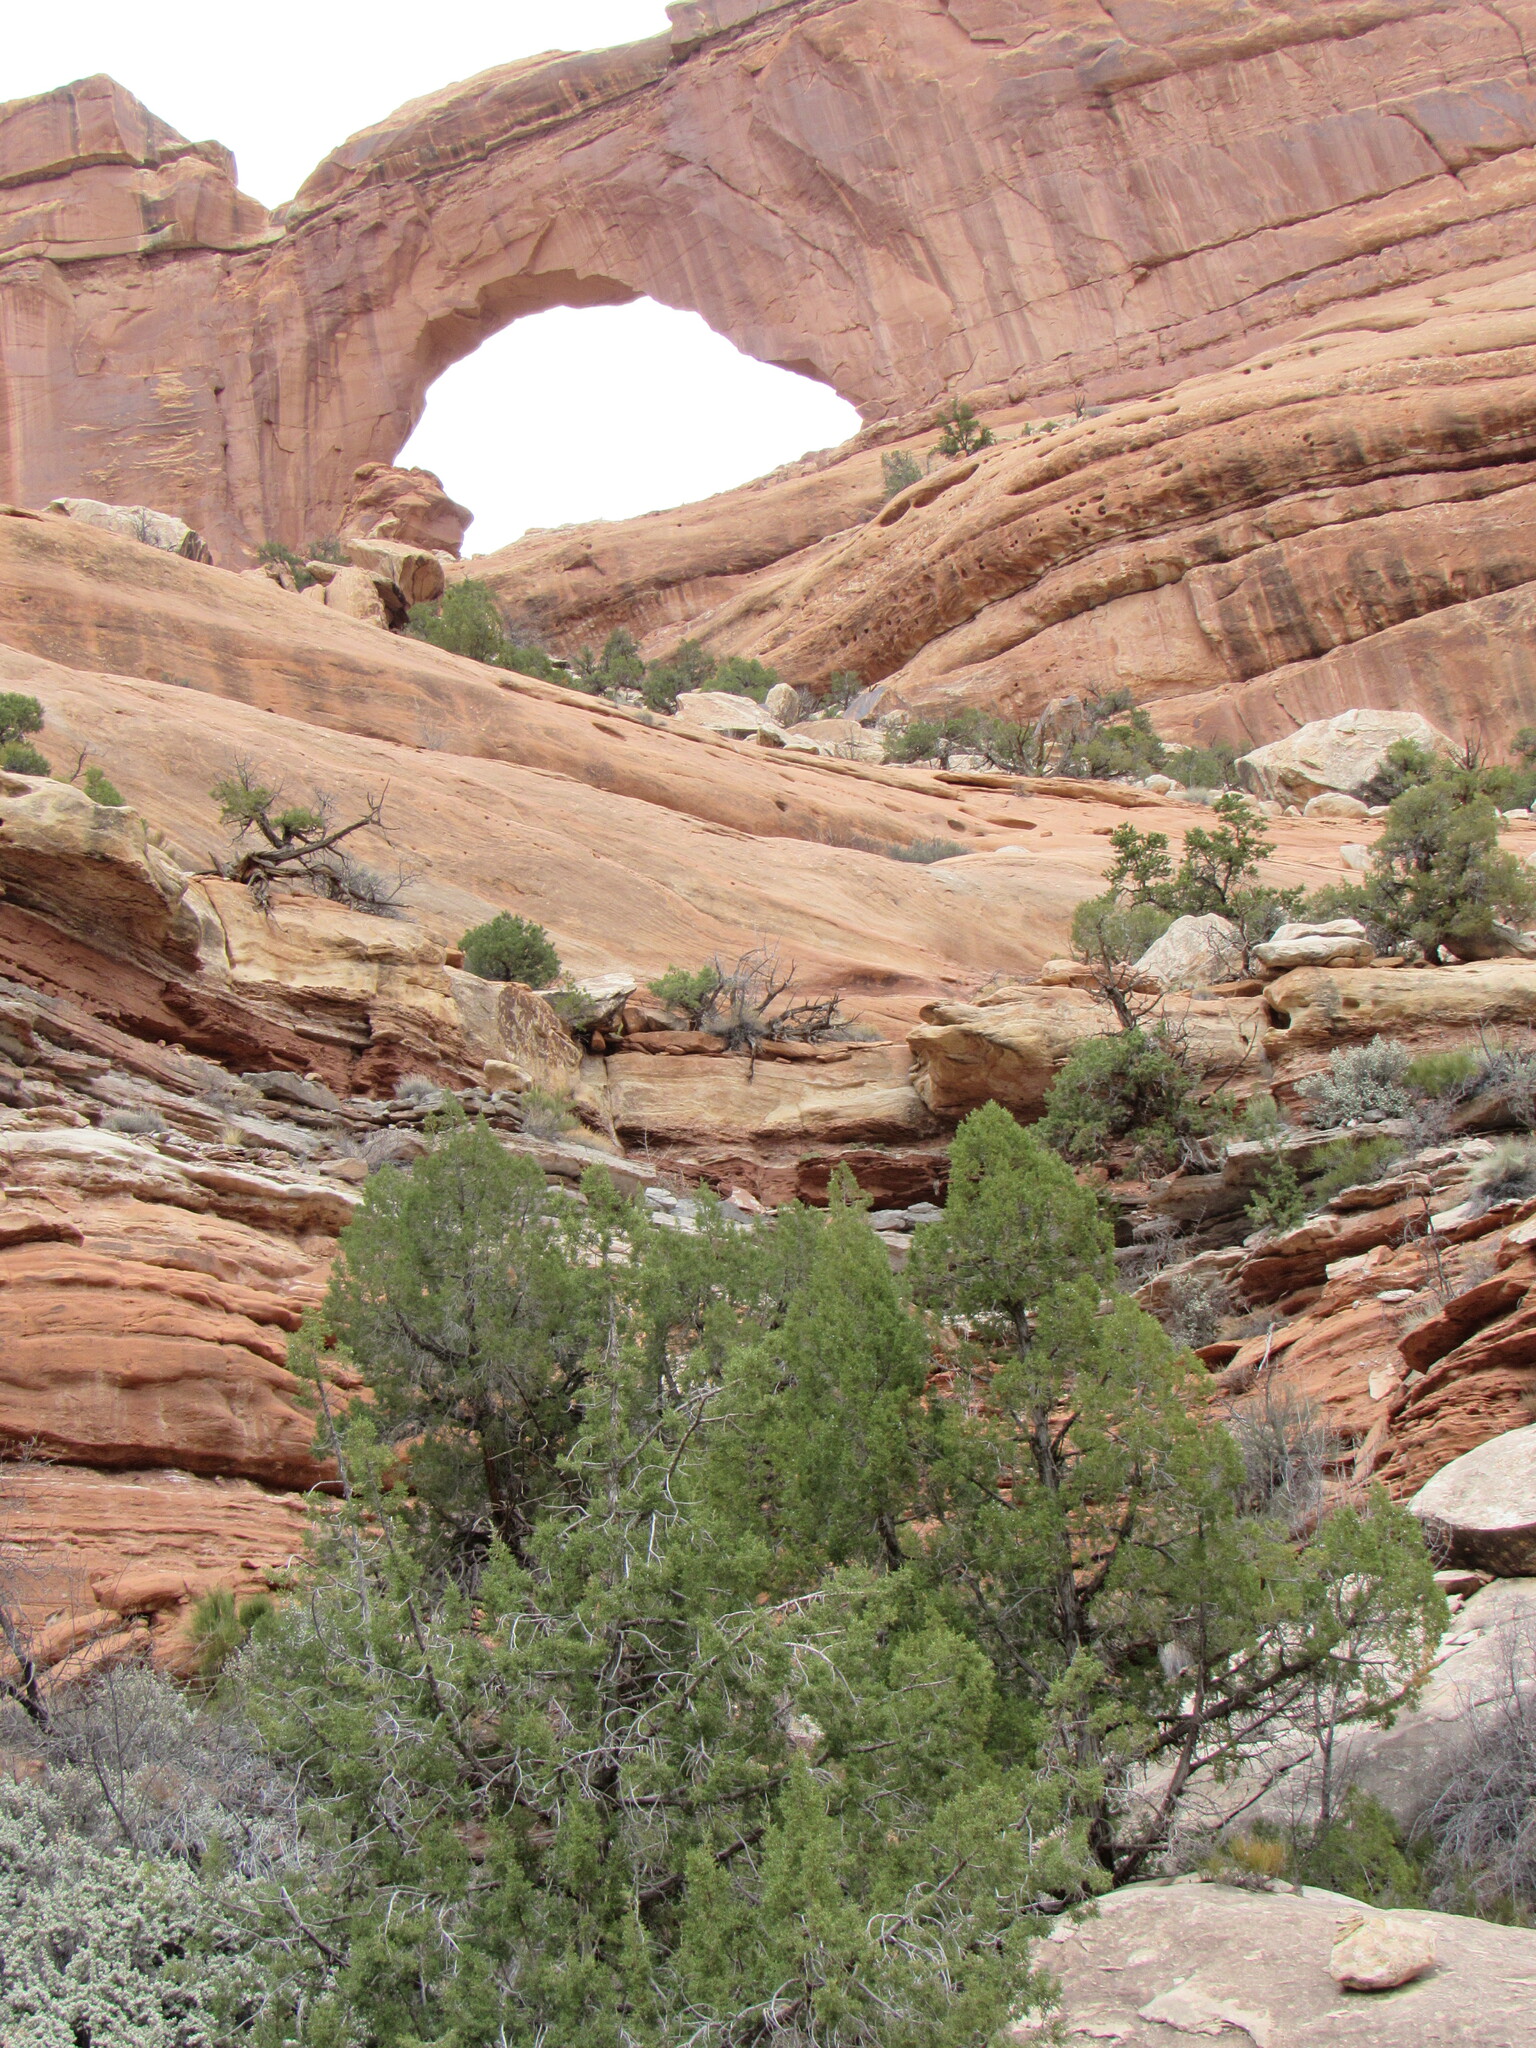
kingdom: Plantae
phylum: Tracheophyta
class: Pinopsida
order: Pinales
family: Cupressaceae
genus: Juniperus
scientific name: Juniperus osteosperma
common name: Utah juniper
